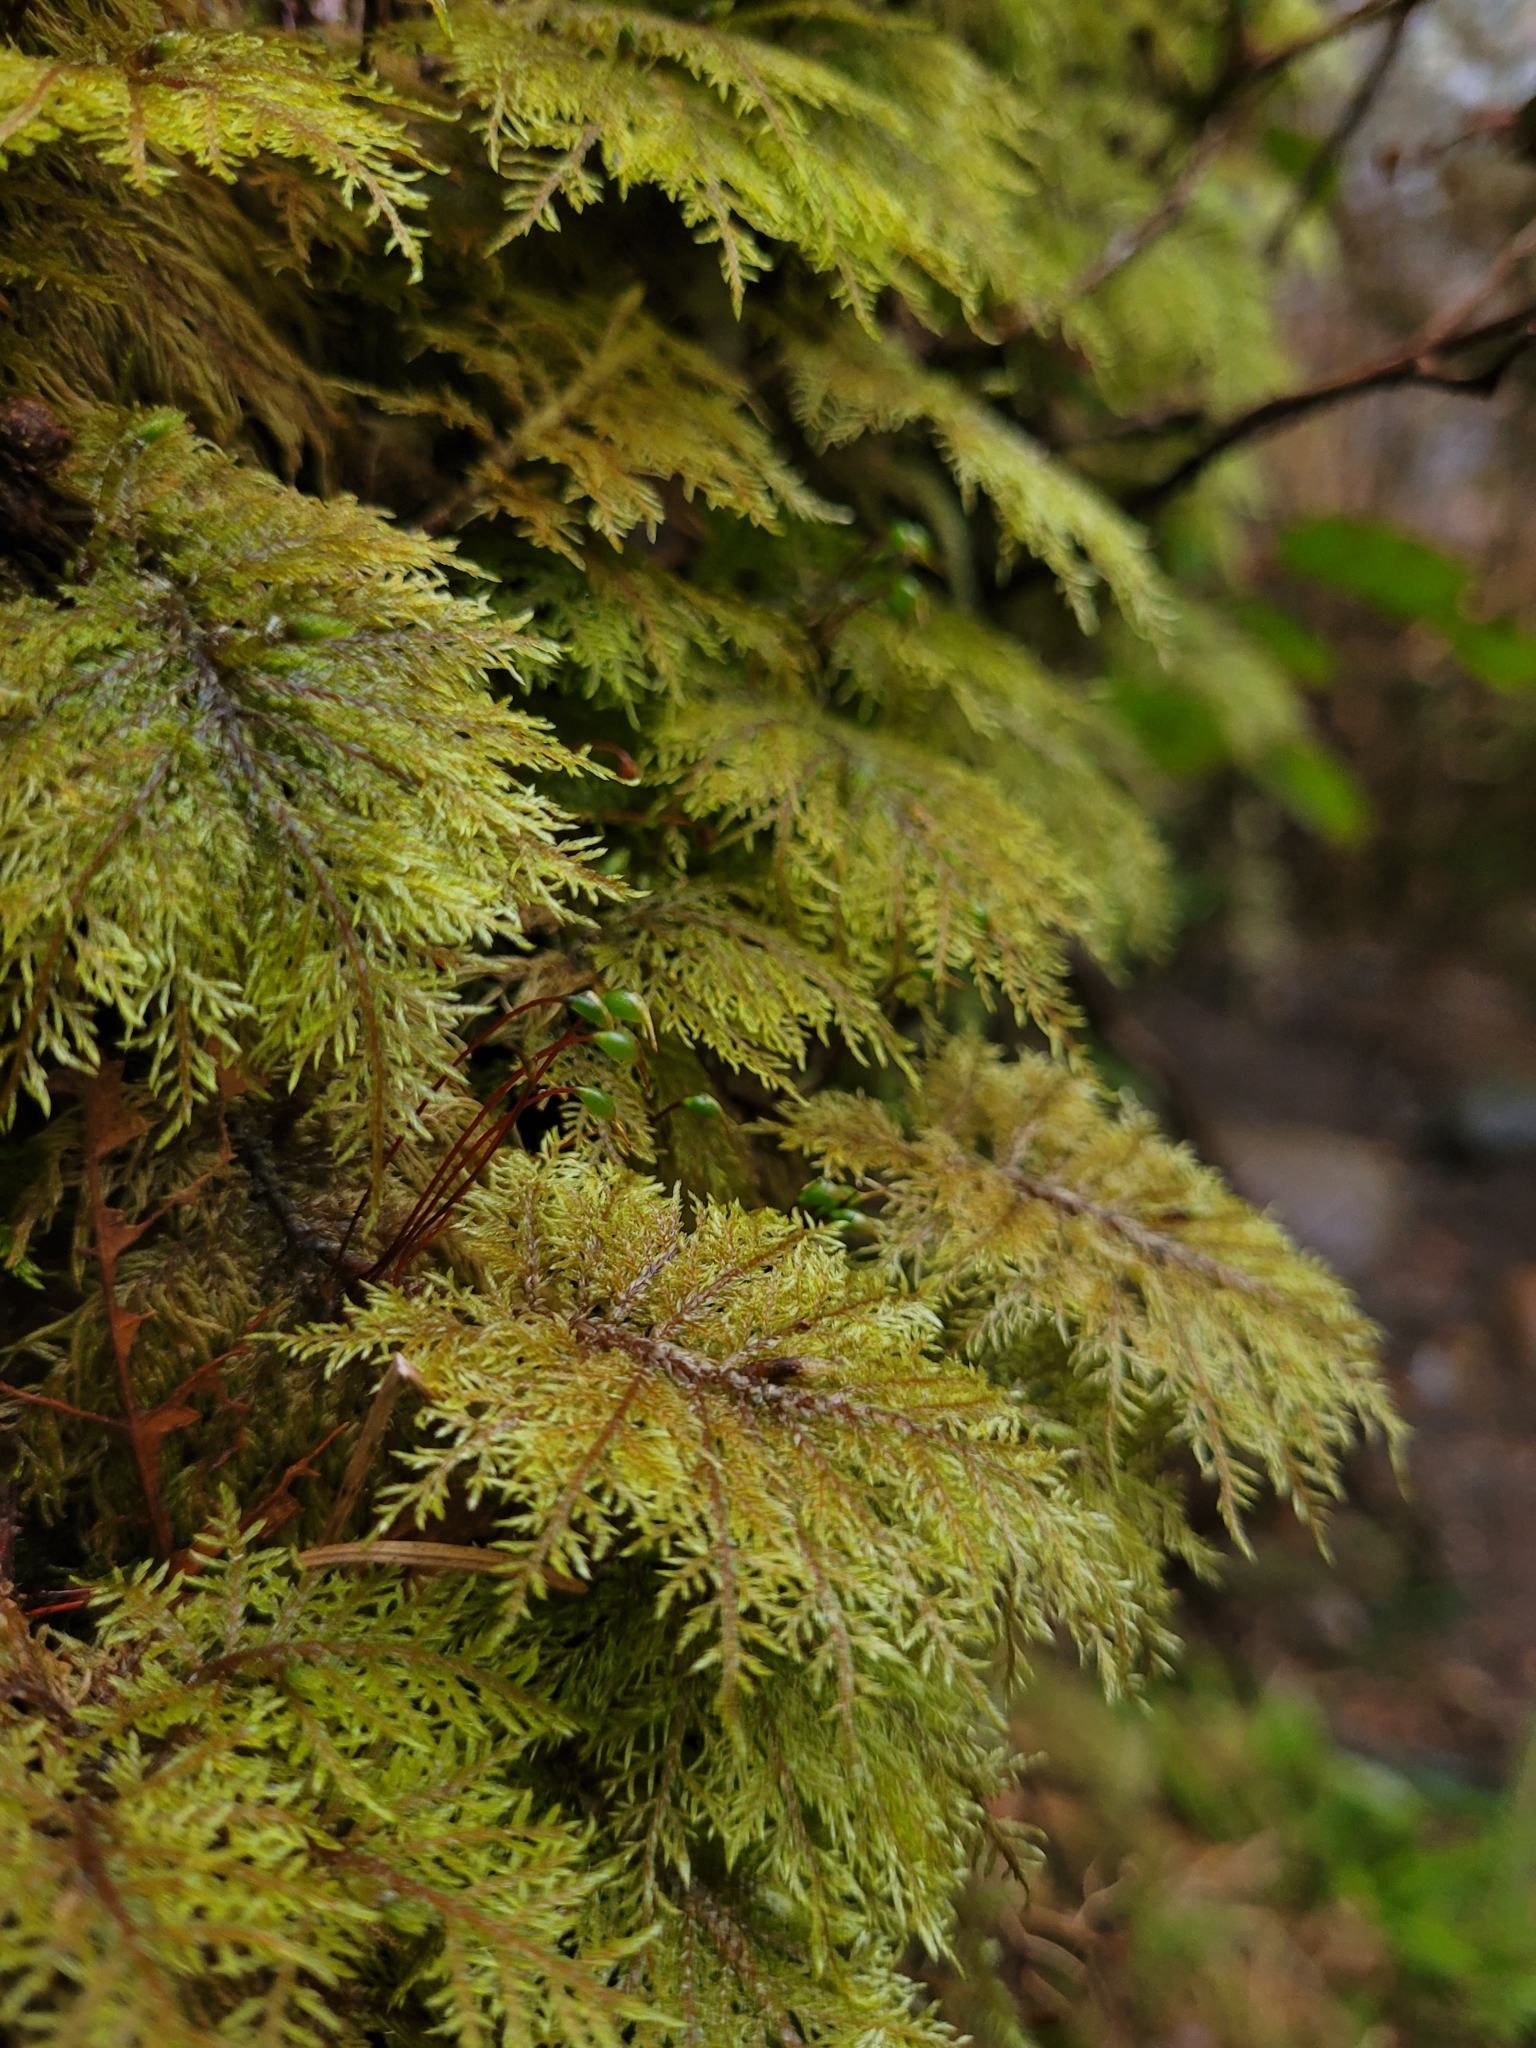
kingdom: Plantae
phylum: Bryophyta
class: Bryopsida
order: Hypnales
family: Hylocomiaceae
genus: Hylocomium
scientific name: Hylocomium splendens
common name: Stairstep moss
